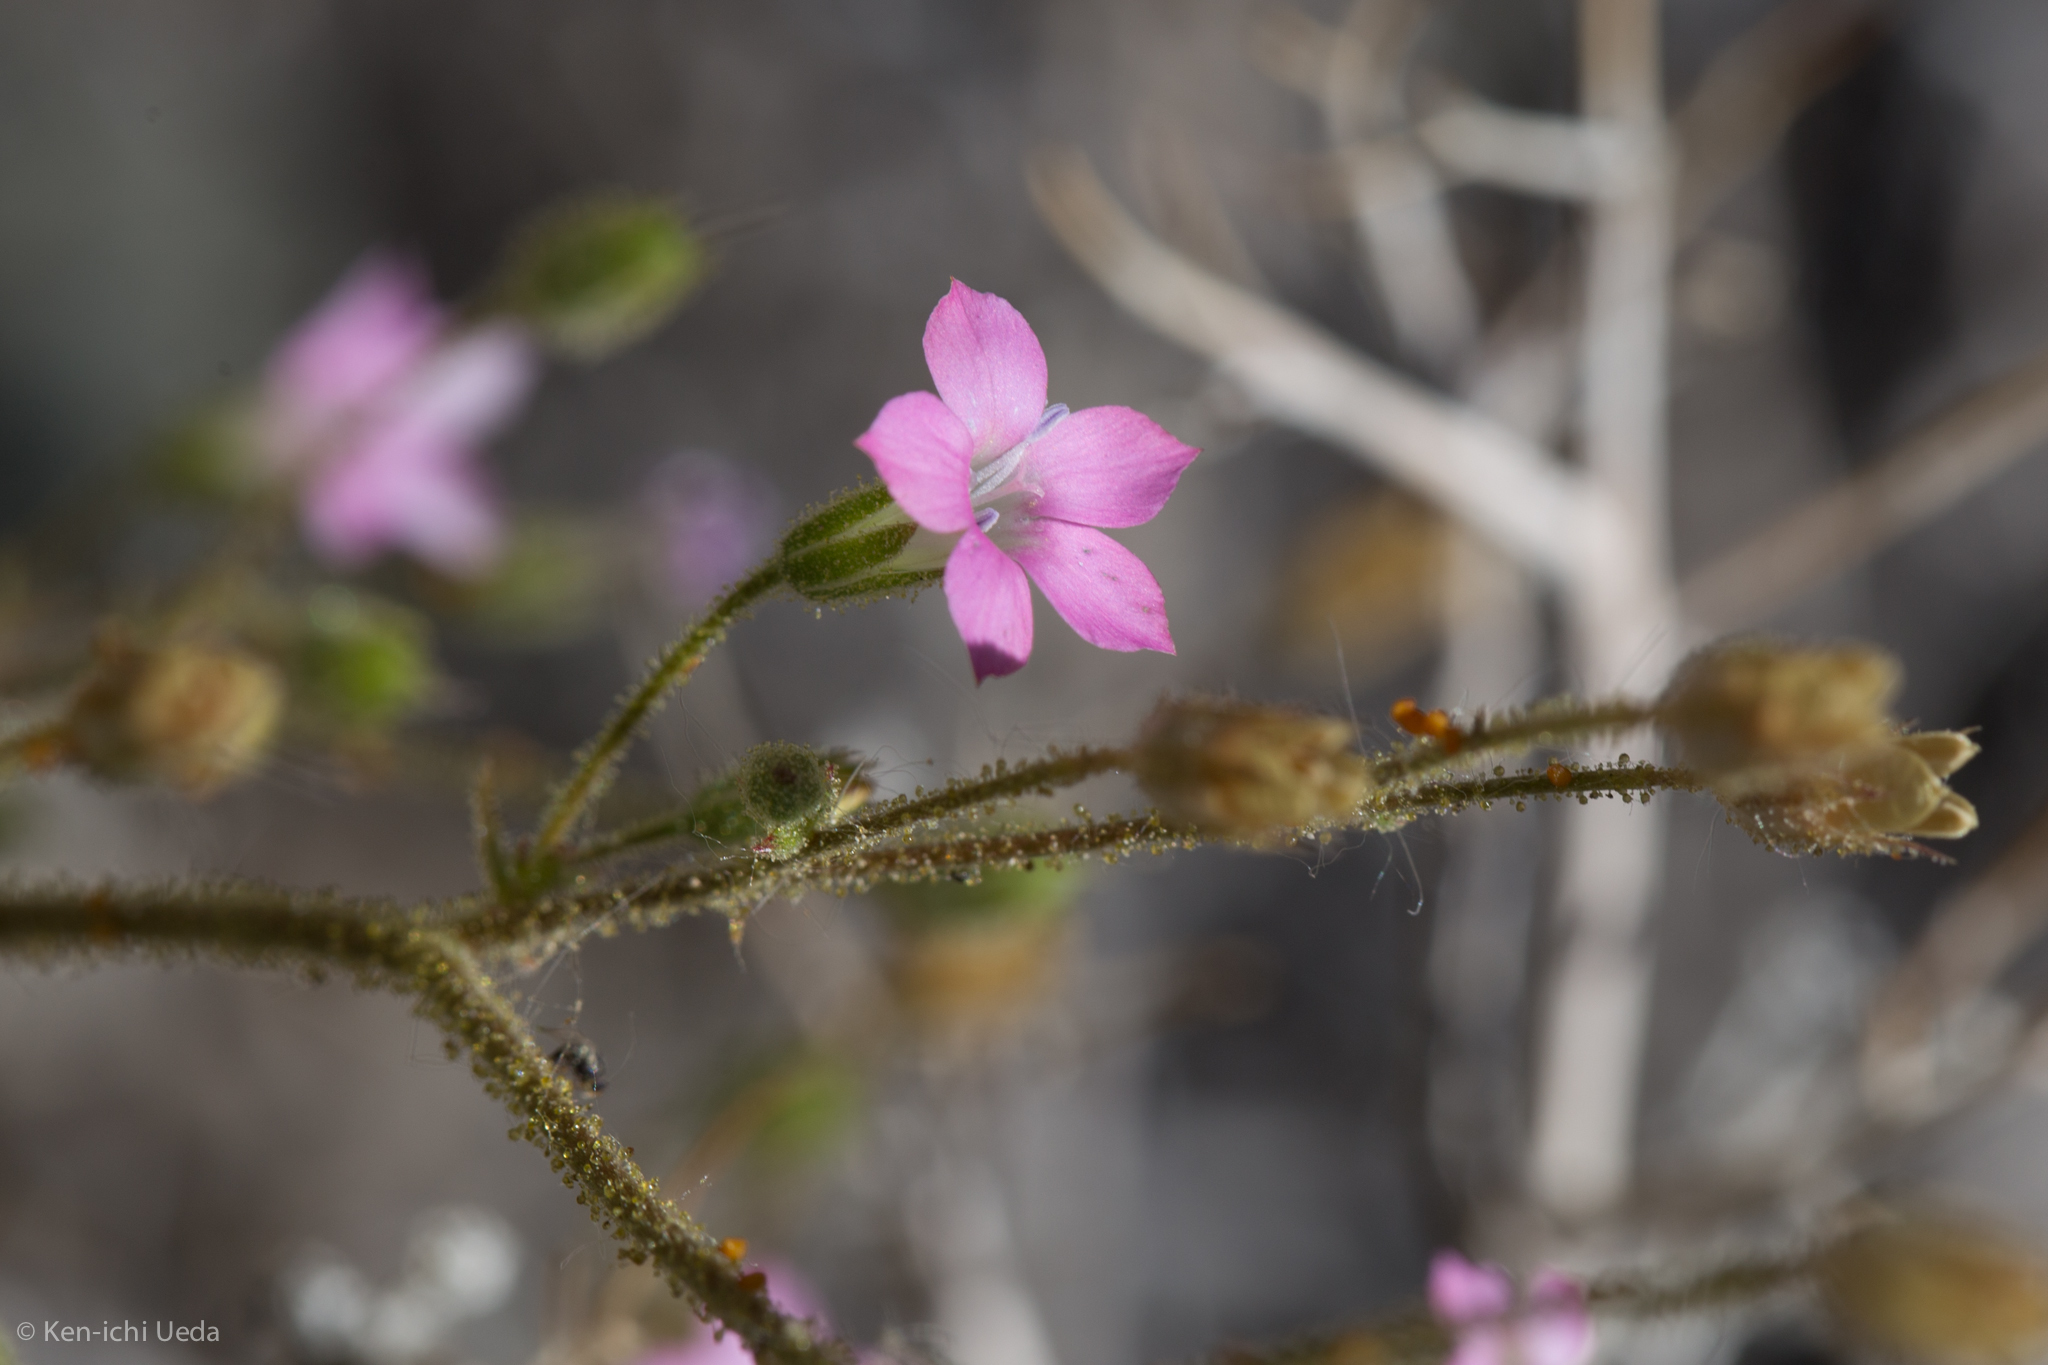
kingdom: Plantae
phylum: Tracheophyta
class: Magnoliopsida
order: Ericales
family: Polemoniaceae
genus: Aliciella
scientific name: Aliciella latifolia
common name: Broad-leaf gilia
